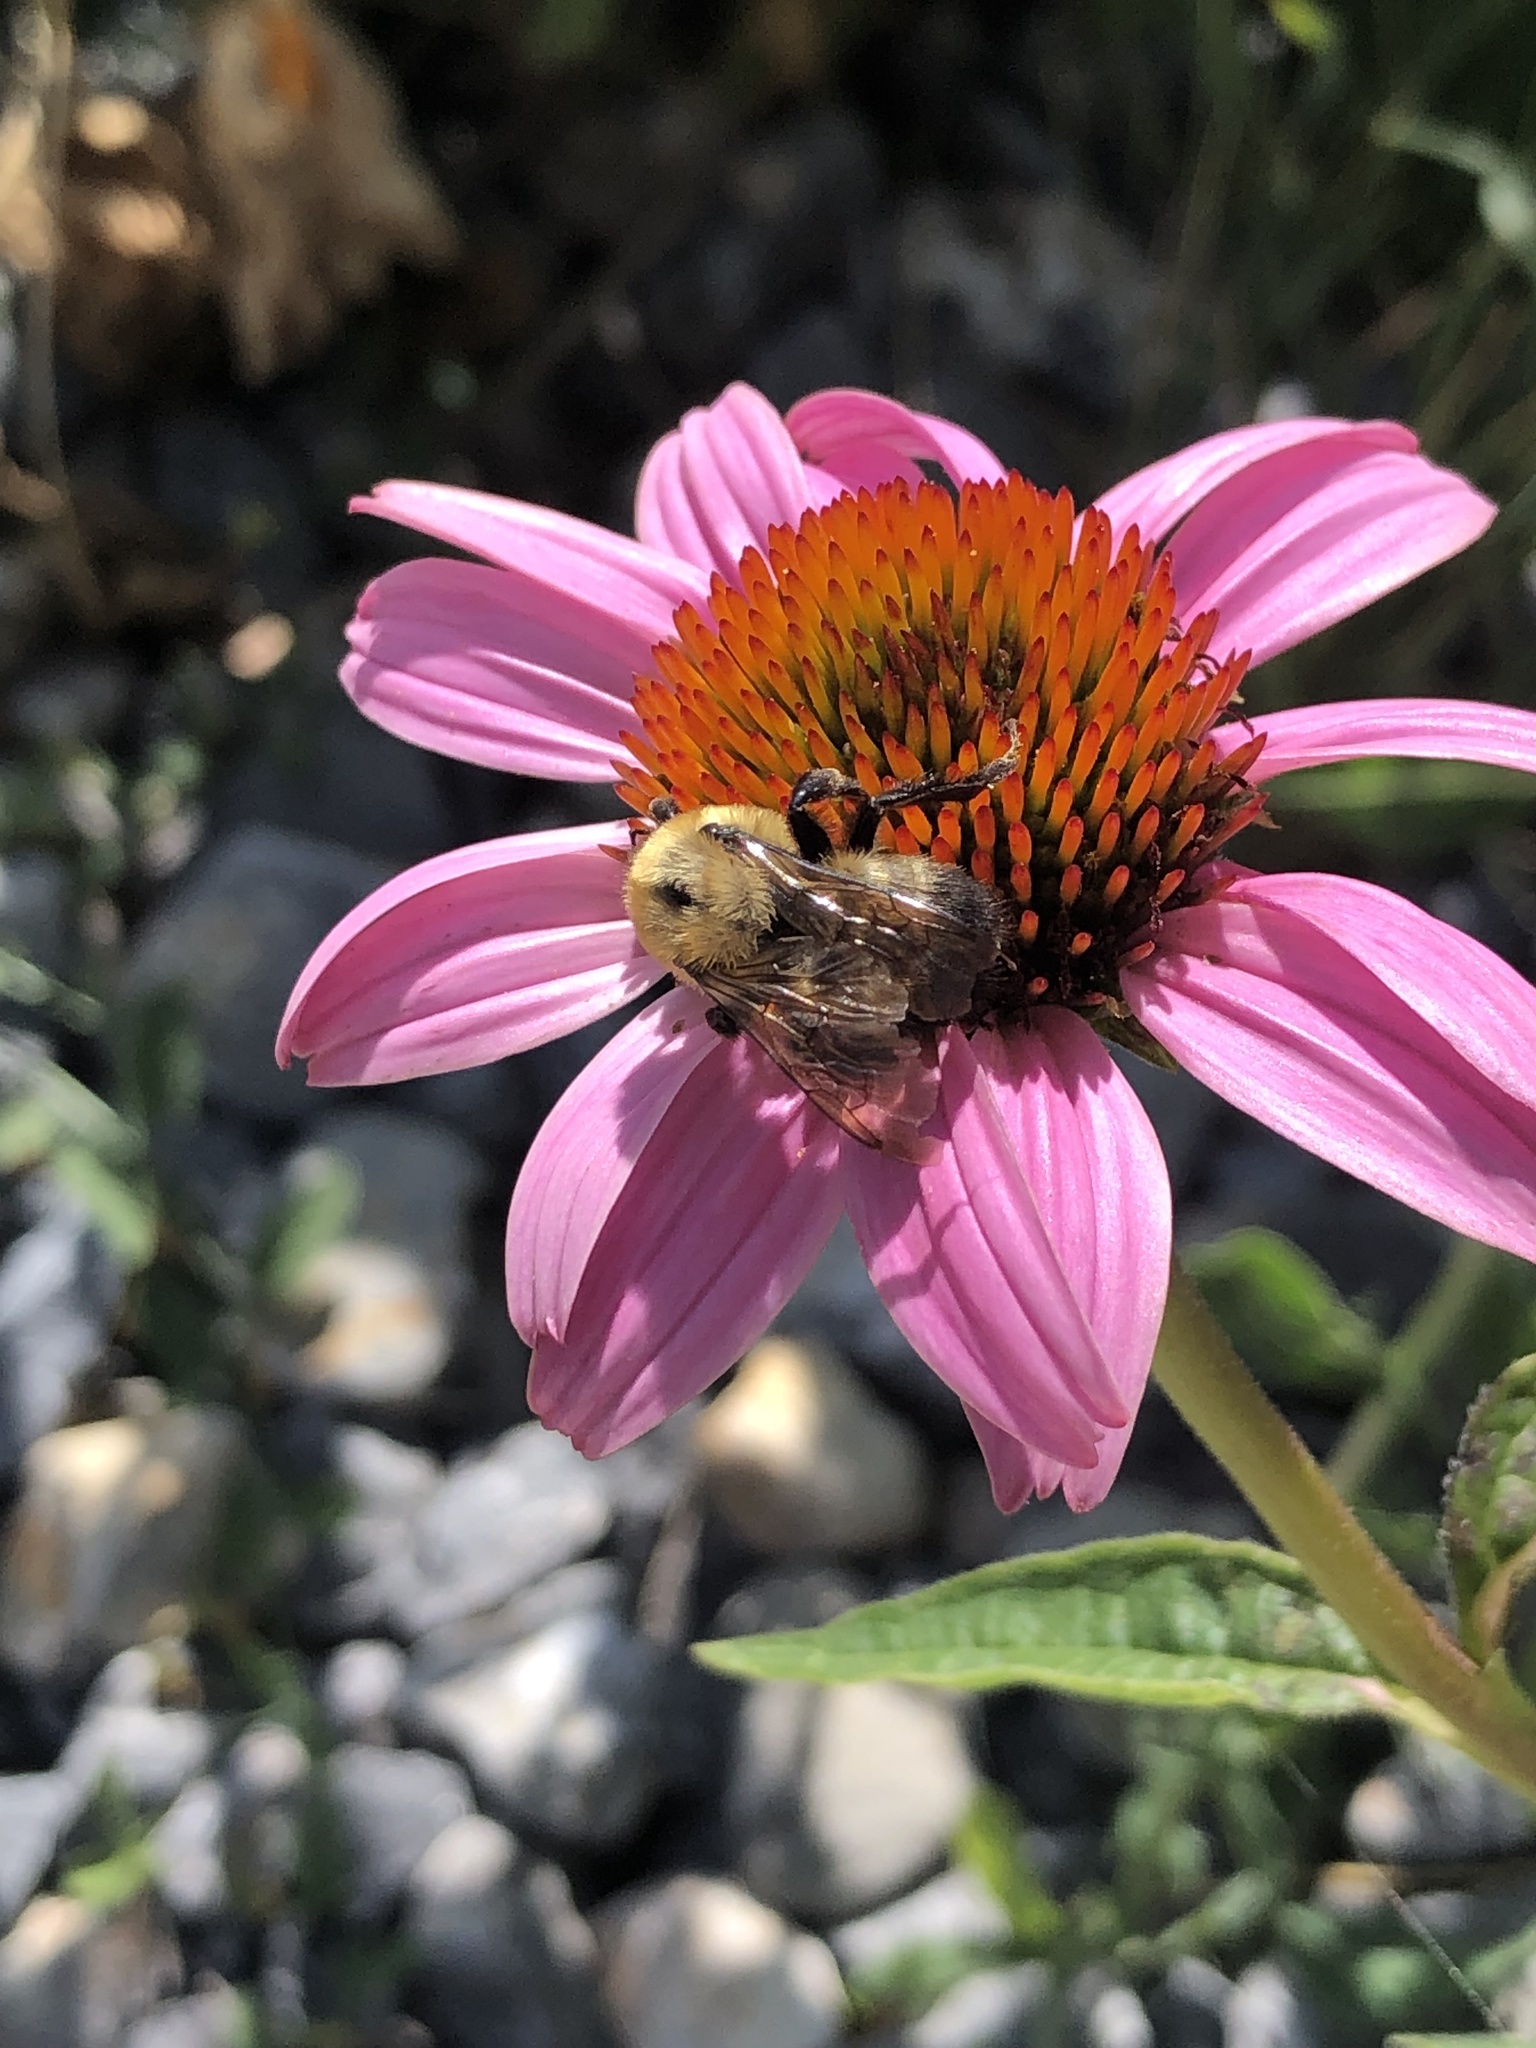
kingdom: Animalia
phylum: Arthropoda
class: Insecta
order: Hymenoptera
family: Apidae
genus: Bombus
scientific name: Bombus griseocollis
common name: Brown-belted bumble bee
